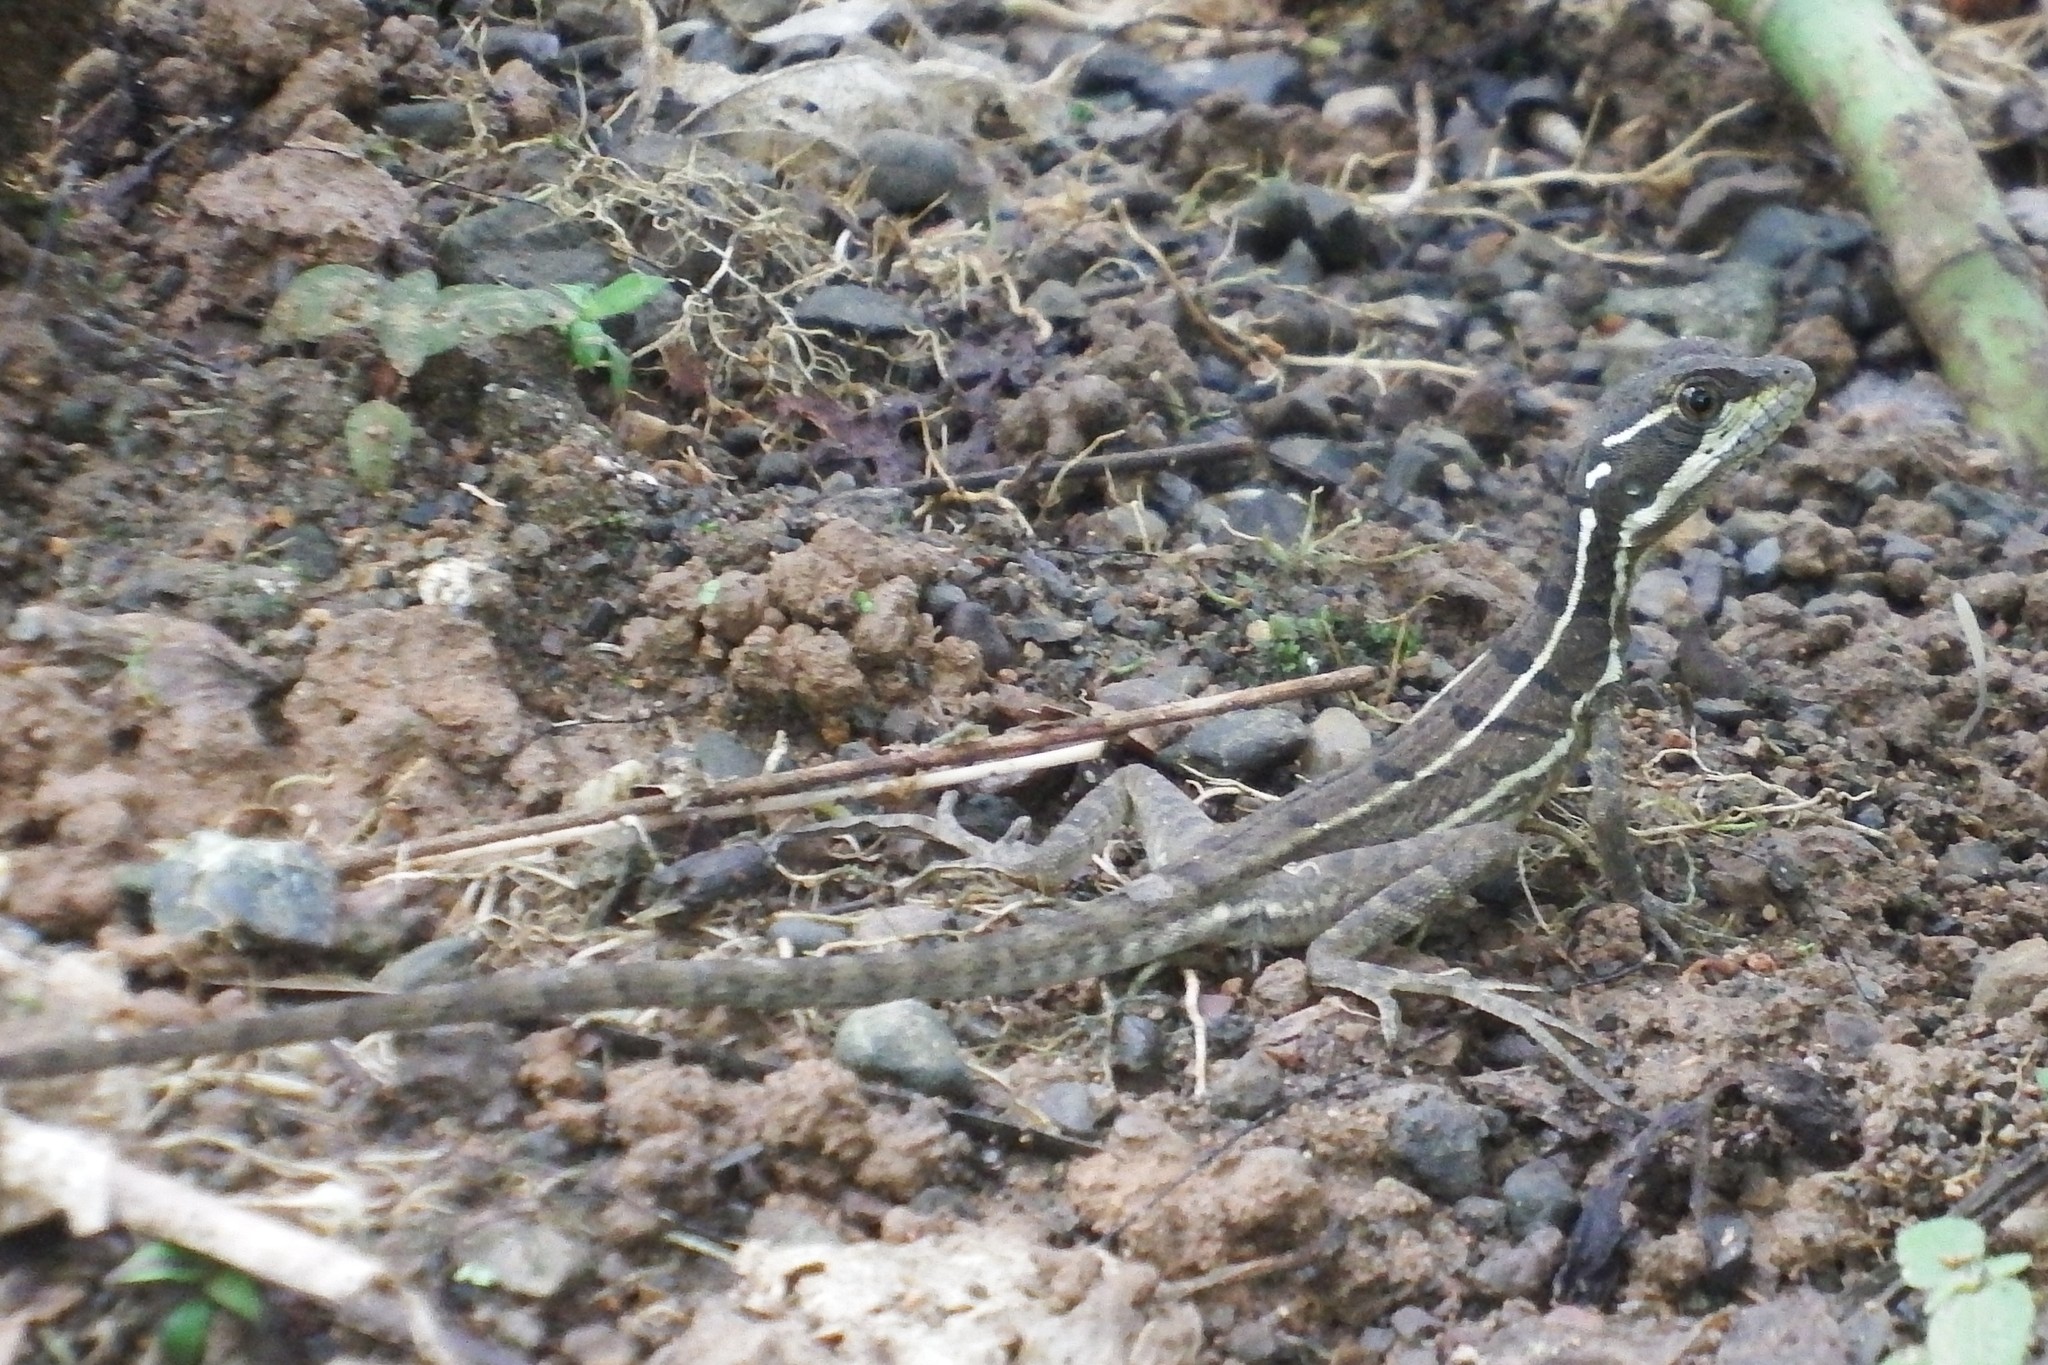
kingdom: Animalia
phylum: Chordata
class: Squamata
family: Corytophanidae
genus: Basiliscus
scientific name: Basiliscus basiliscus
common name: Common basilisk
